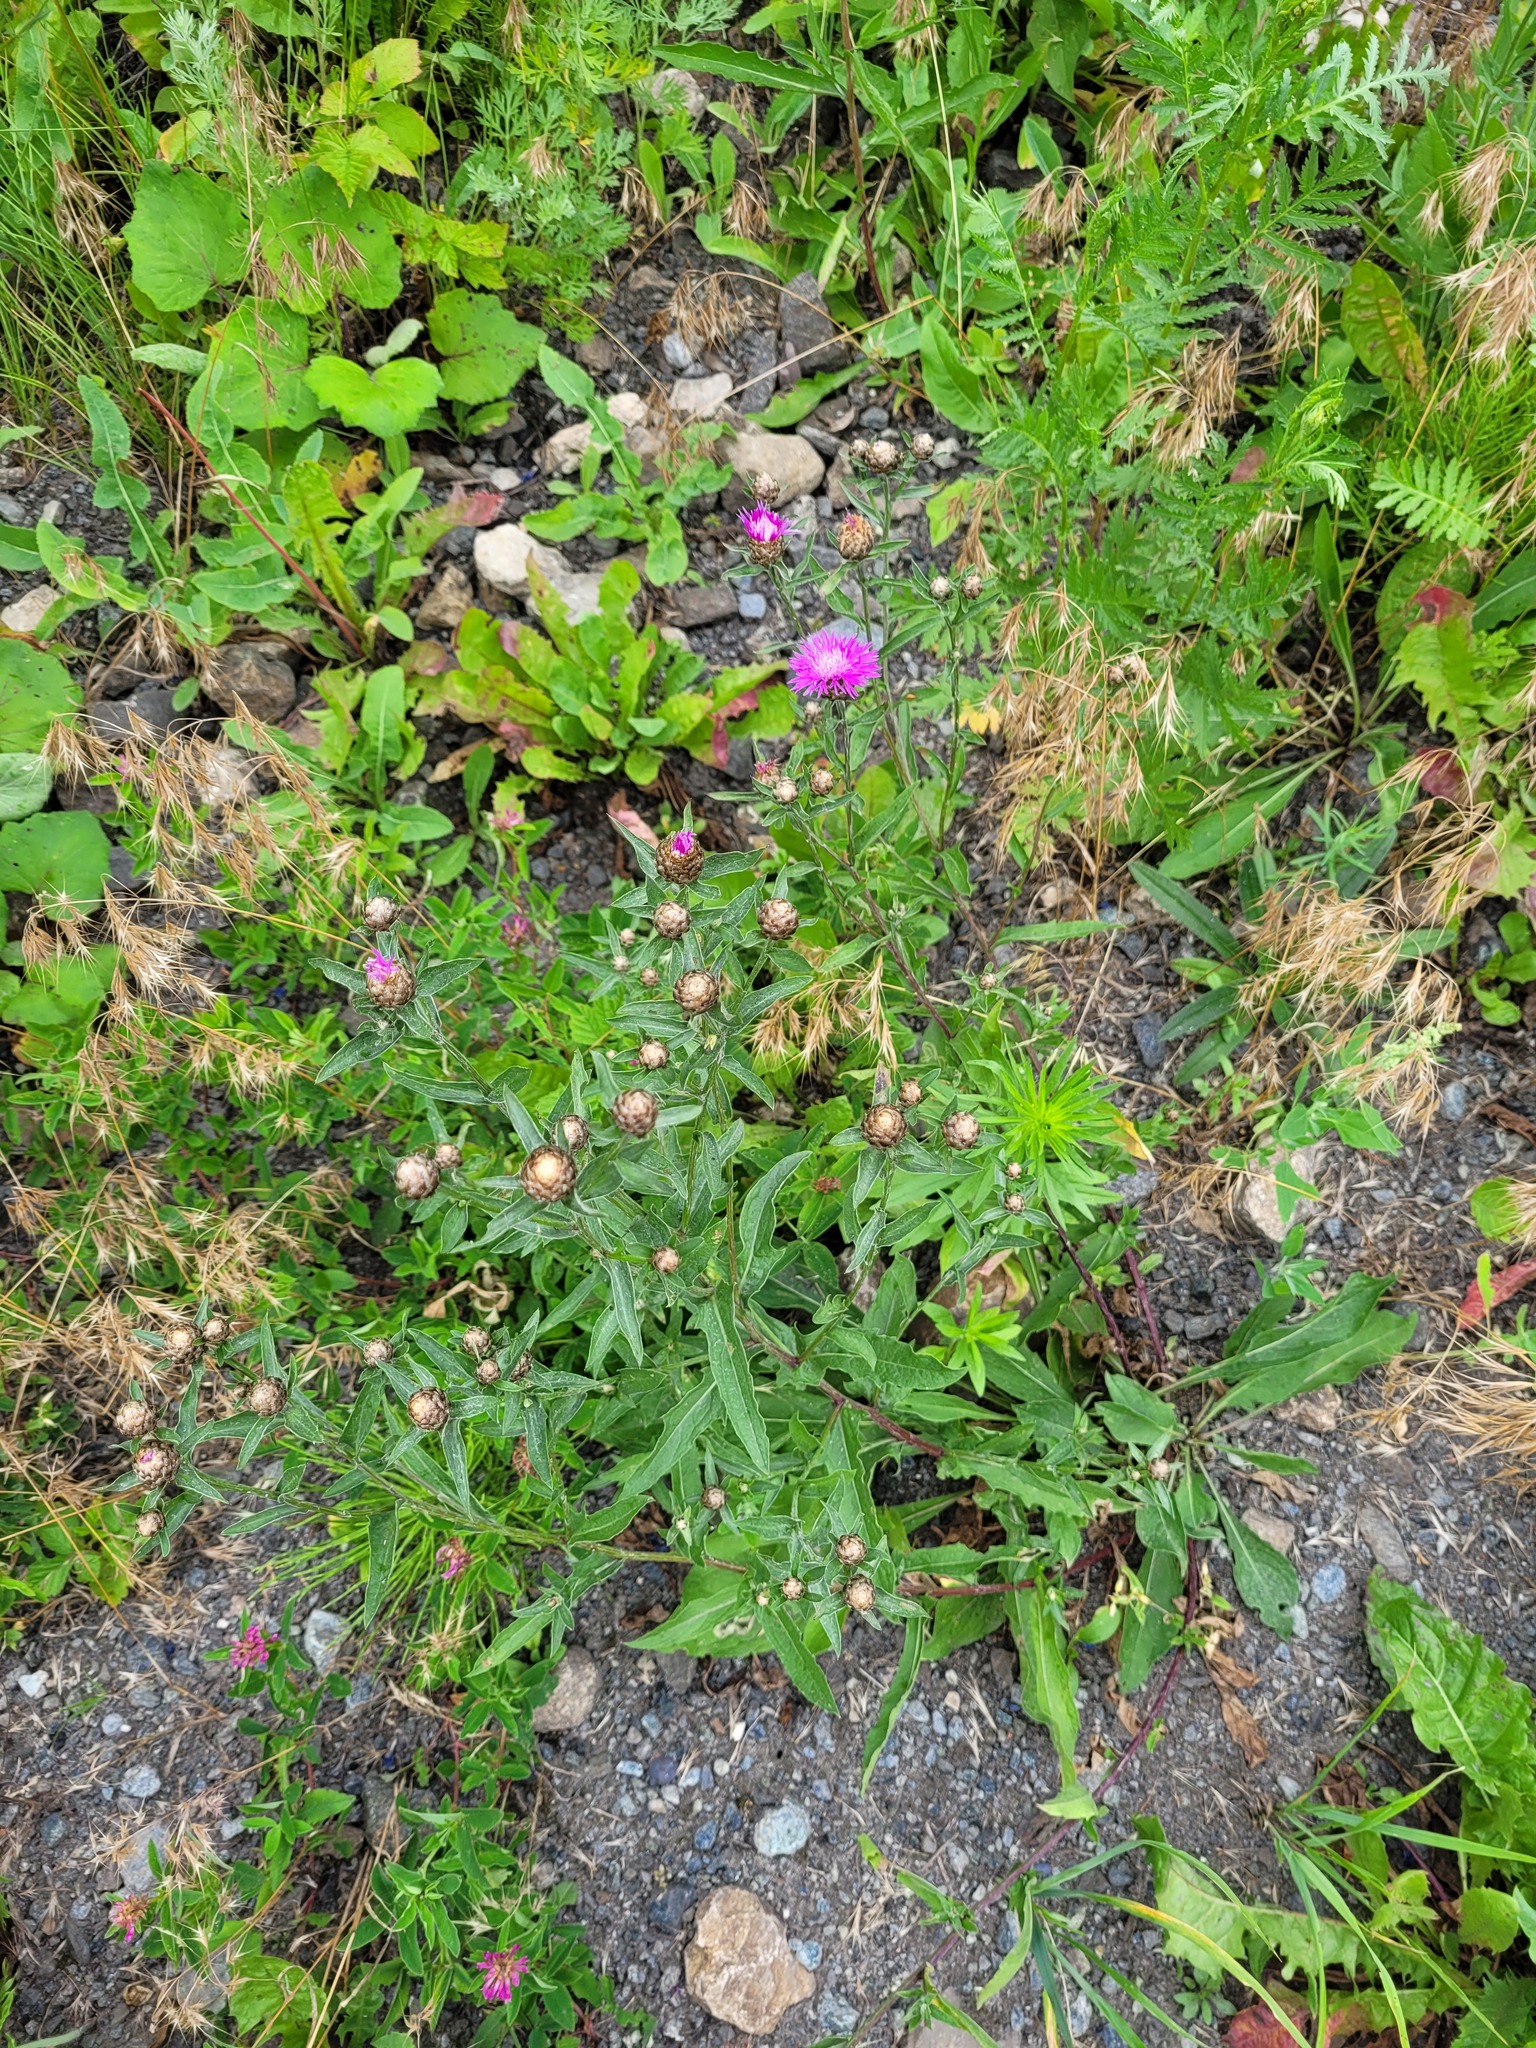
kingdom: Plantae
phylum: Tracheophyta
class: Magnoliopsida
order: Asterales
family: Asteraceae
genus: Centaurea
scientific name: Centaurea jacea
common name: Brown knapweed
